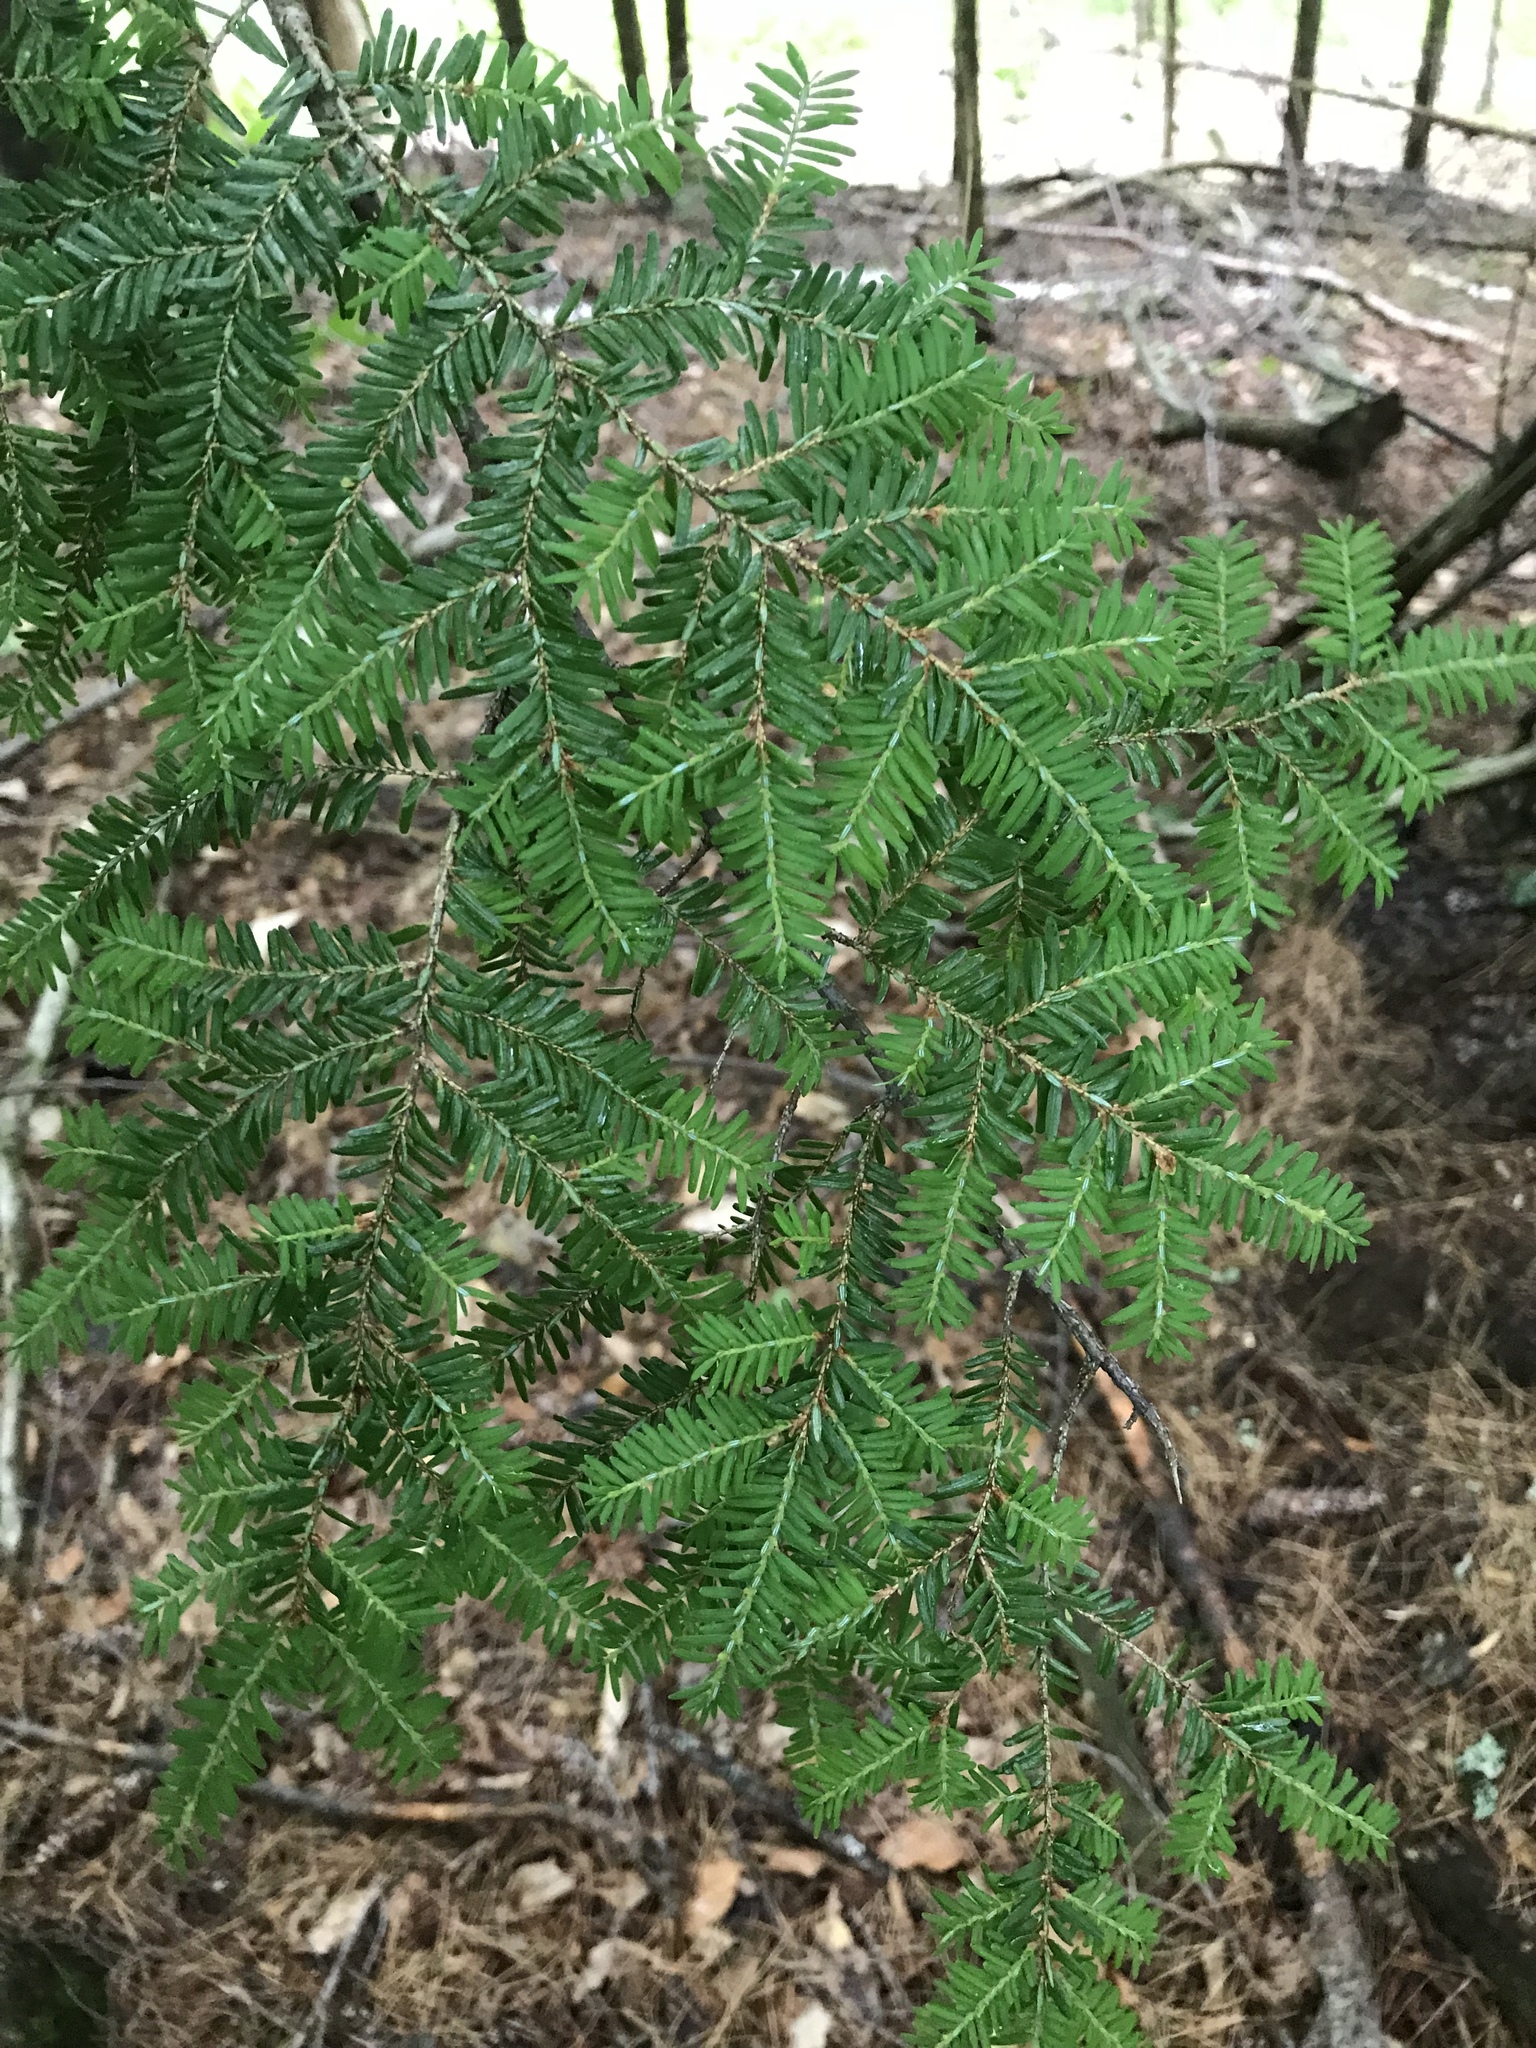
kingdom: Plantae
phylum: Tracheophyta
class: Pinopsida
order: Pinales
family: Pinaceae
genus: Tsuga
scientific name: Tsuga canadensis
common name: Eastern hemlock
